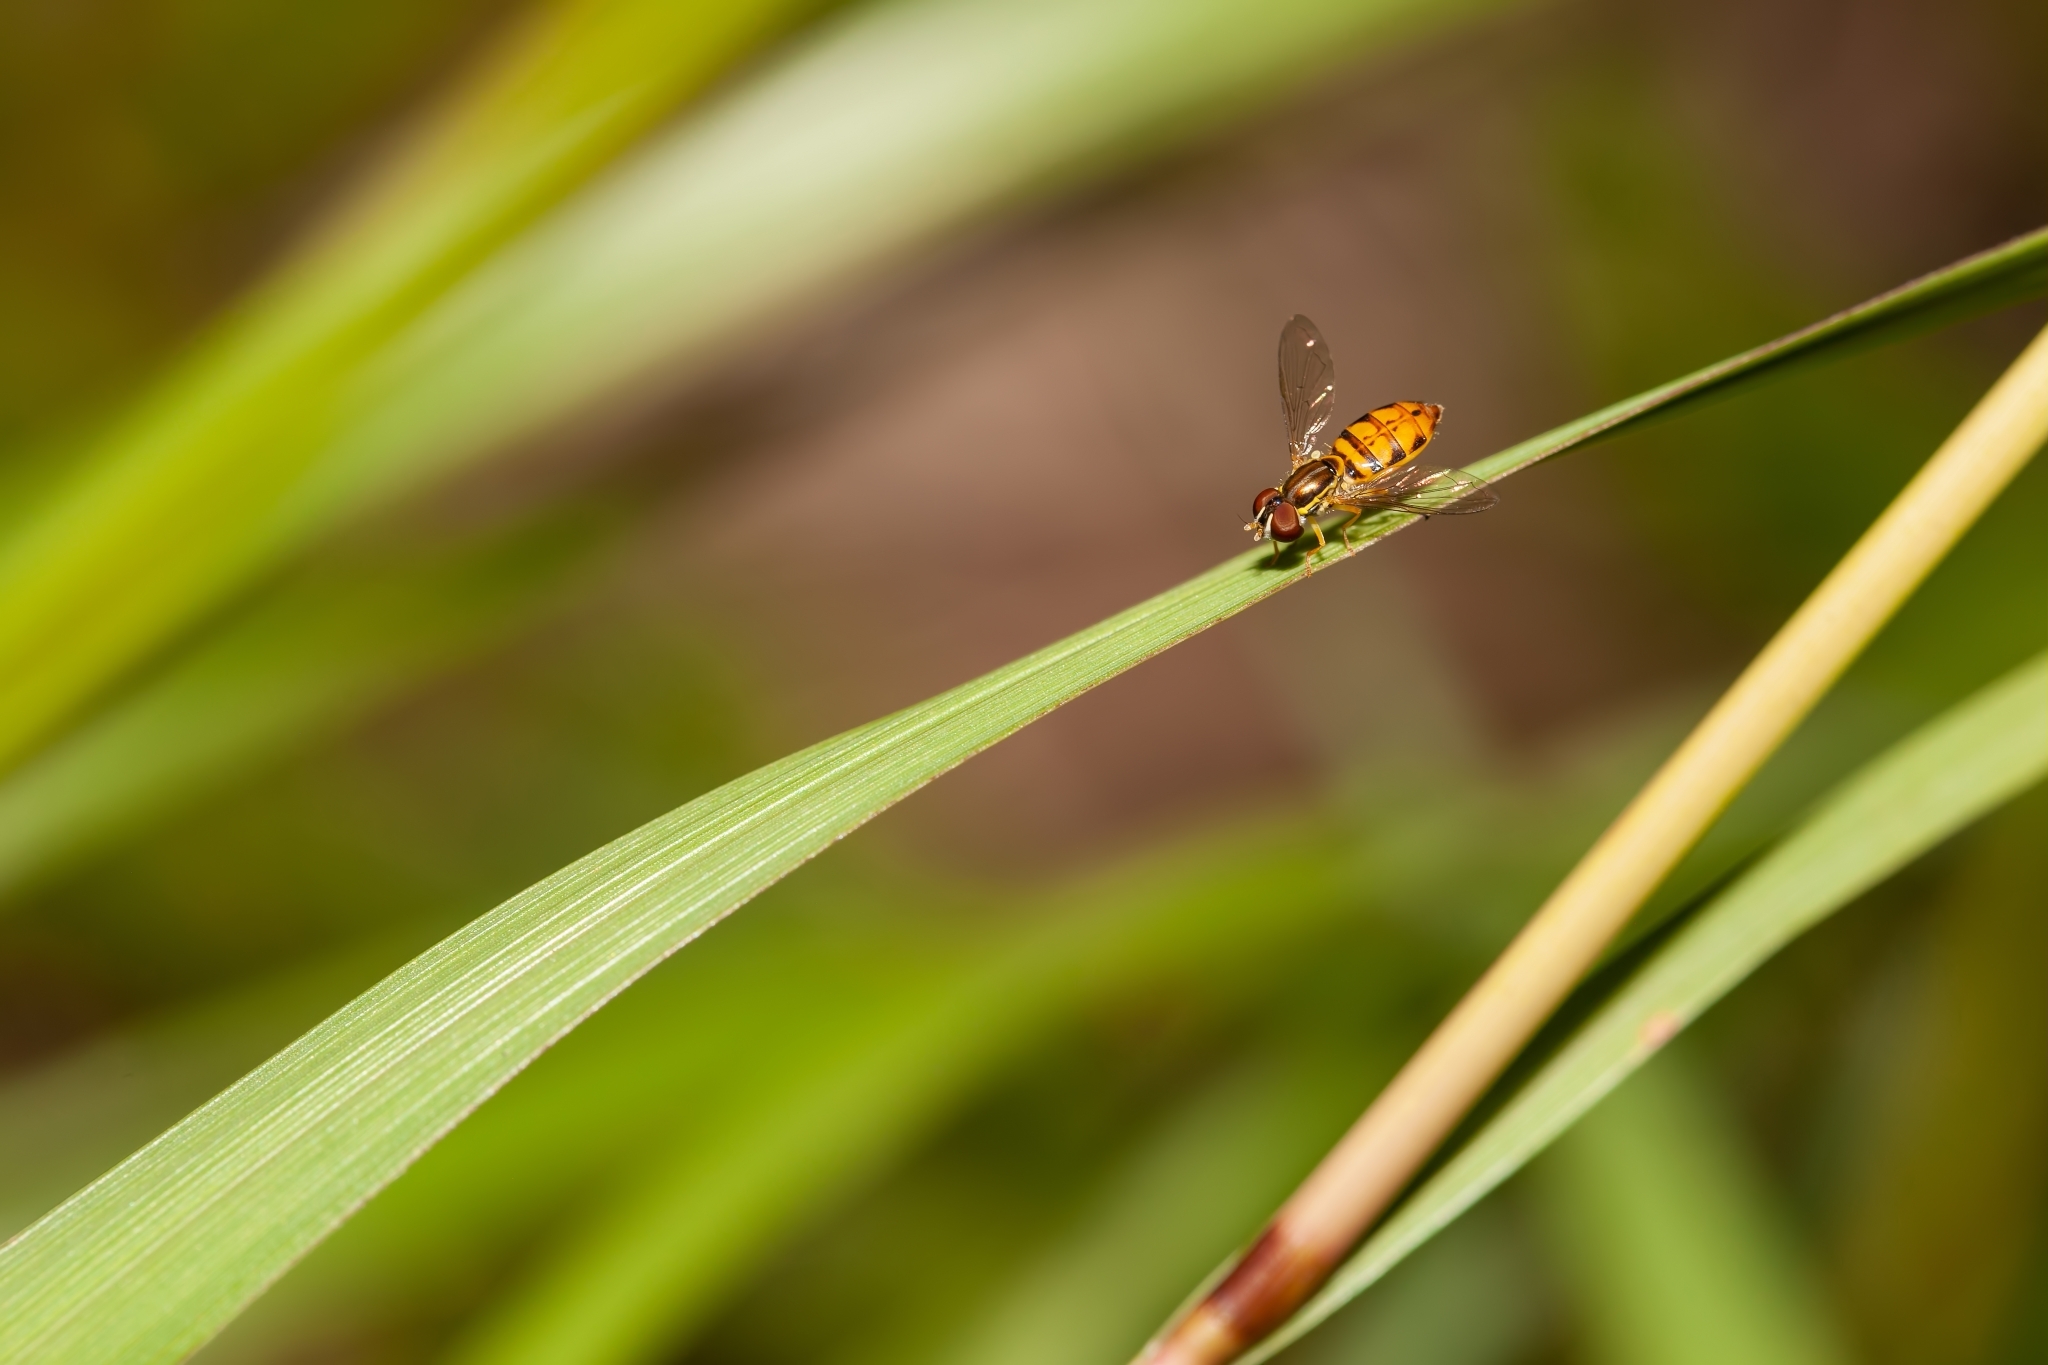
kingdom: Animalia
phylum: Arthropoda
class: Insecta
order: Diptera
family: Syrphidae
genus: Toxomerus
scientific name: Toxomerus floralis
